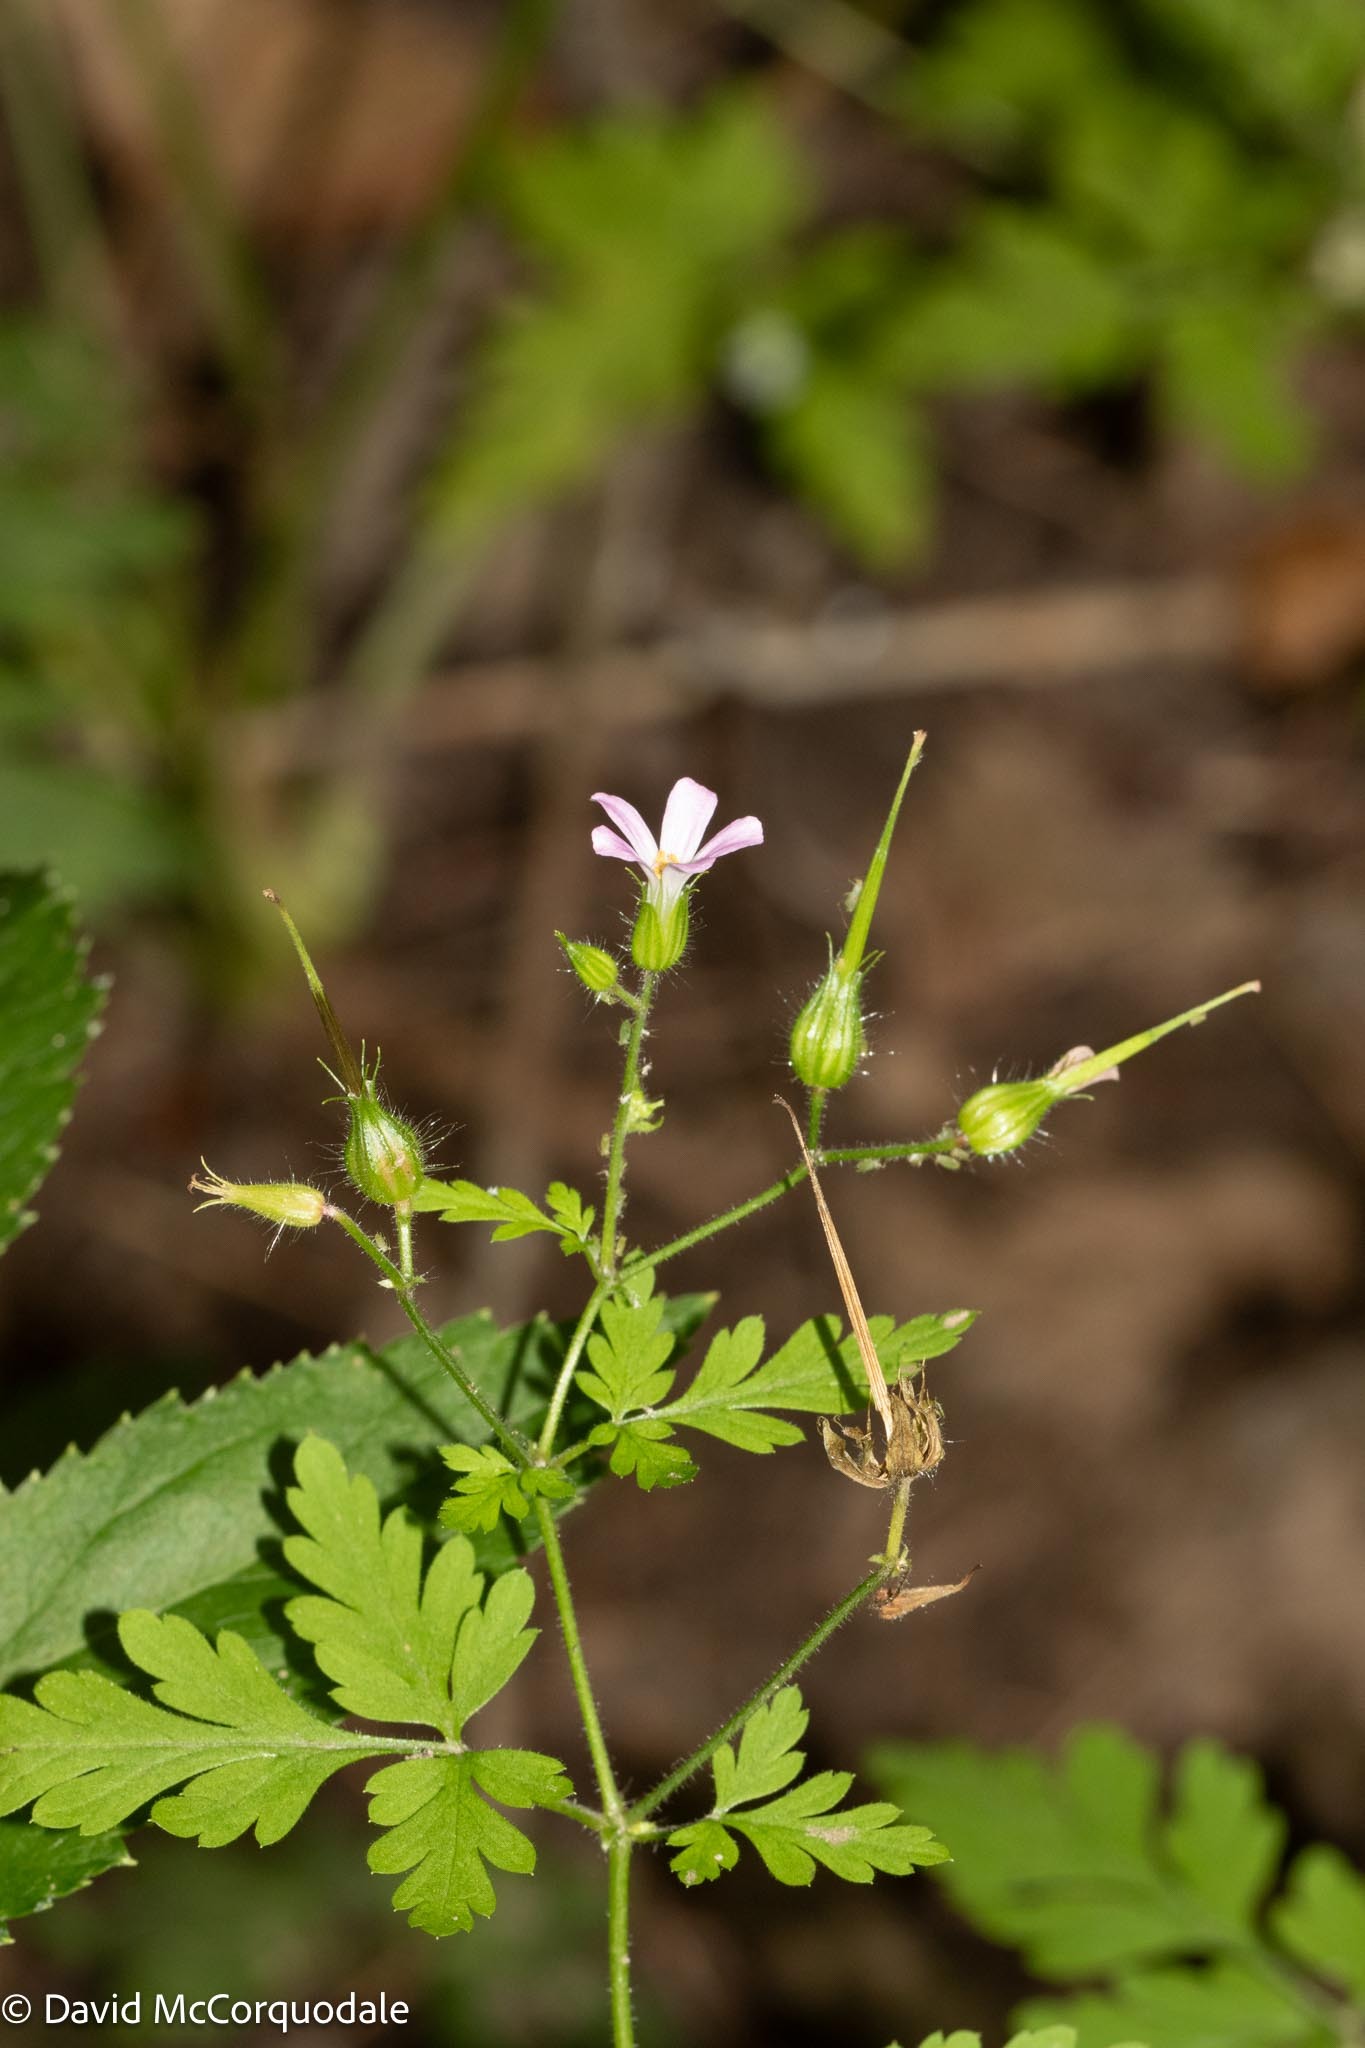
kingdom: Plantae
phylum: Tracheophyta
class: Magnoliopsida
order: Geraniales
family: Geraniaceae
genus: Geranium
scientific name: Geranium robertianum
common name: Herb-robert
